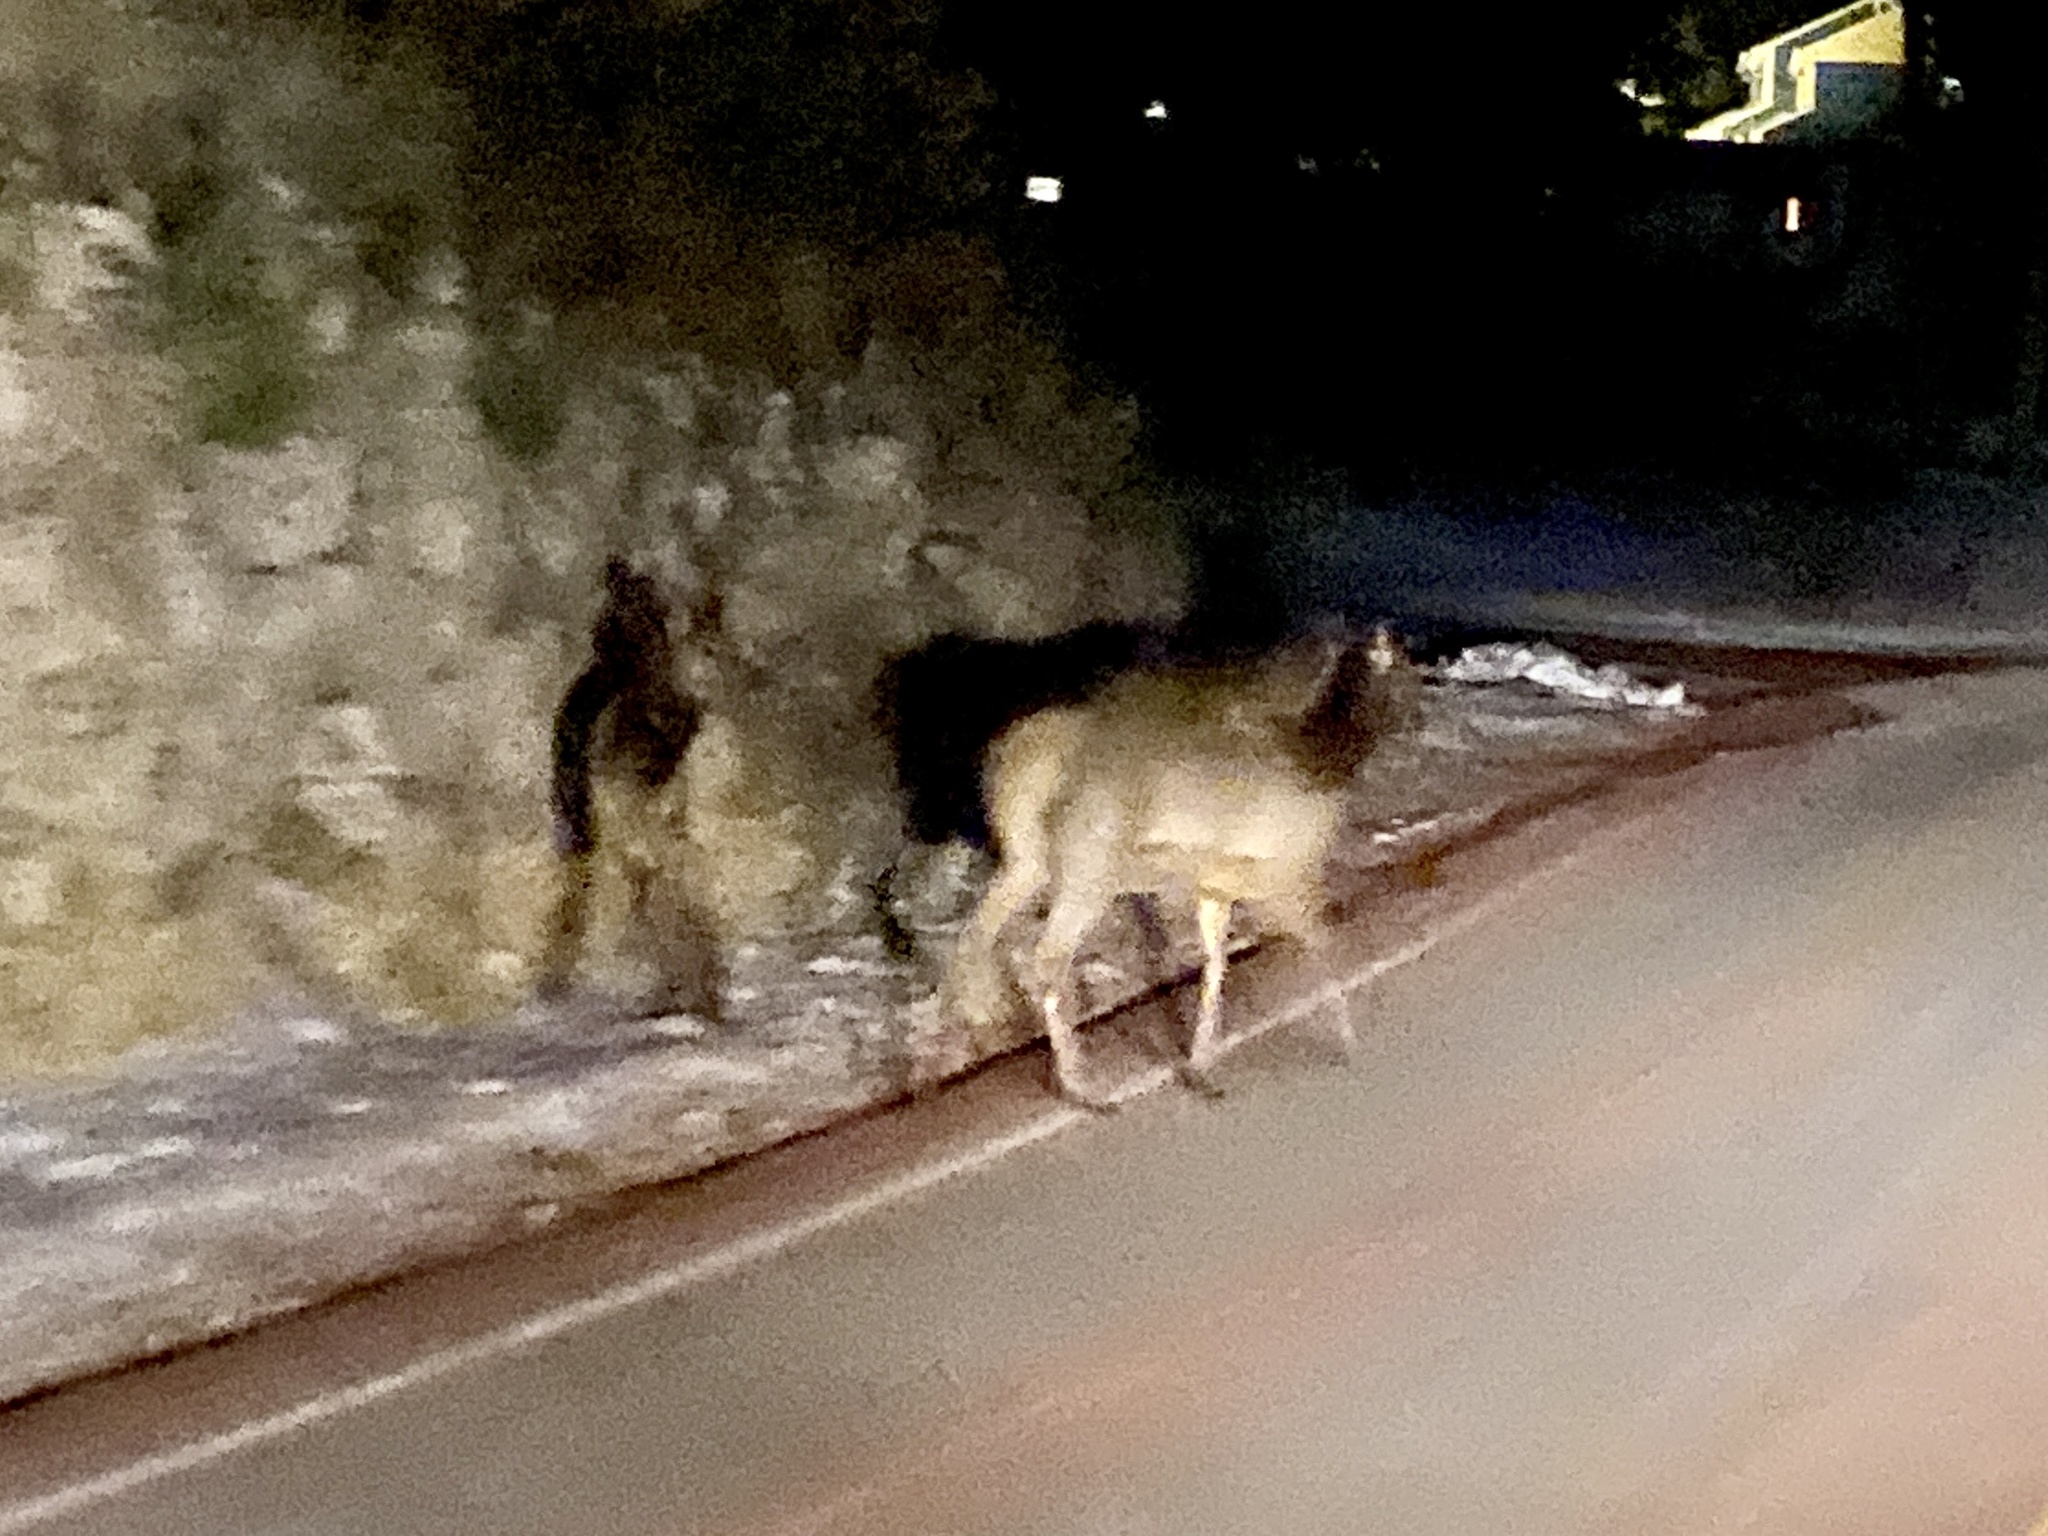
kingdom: Animalia
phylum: Chordata
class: Mammalia
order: Artiodactyla
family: Cervidae
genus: Cervus
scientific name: Cervus elaphus
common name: Red deer
